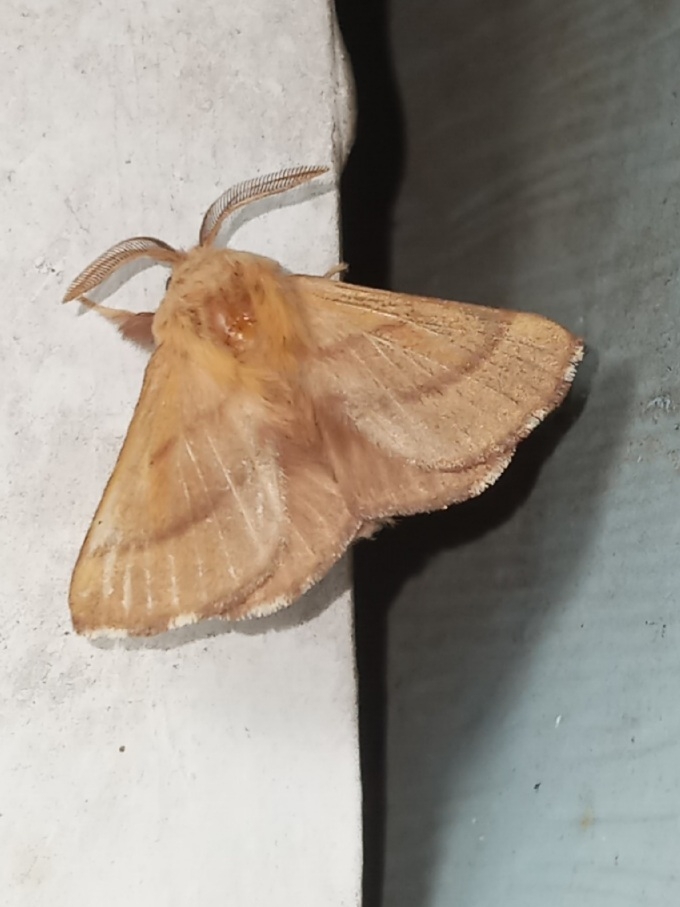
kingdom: Animalia
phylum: Arthropoda
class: Insecta
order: Lepidoptera
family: Lasiocampidae
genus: Malacosoma
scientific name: Malacosoma disstria
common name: Forest tent caterpillar
